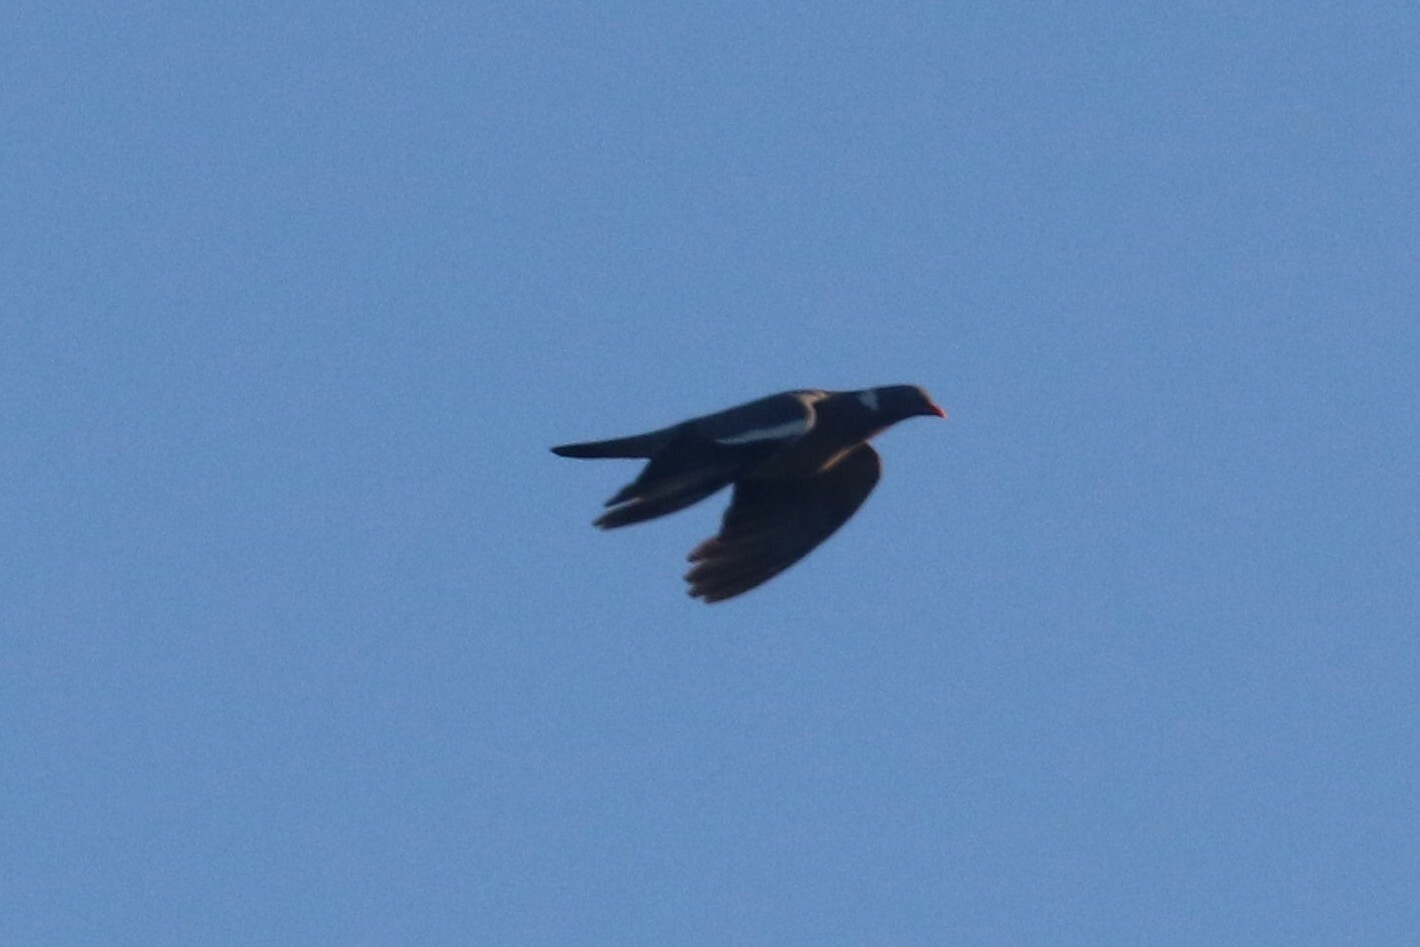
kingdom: Animalia
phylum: Chordata
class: Aves
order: Columbiformes
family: Columbidae
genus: Columba
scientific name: Columba palumbus
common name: Common wood pigeon
